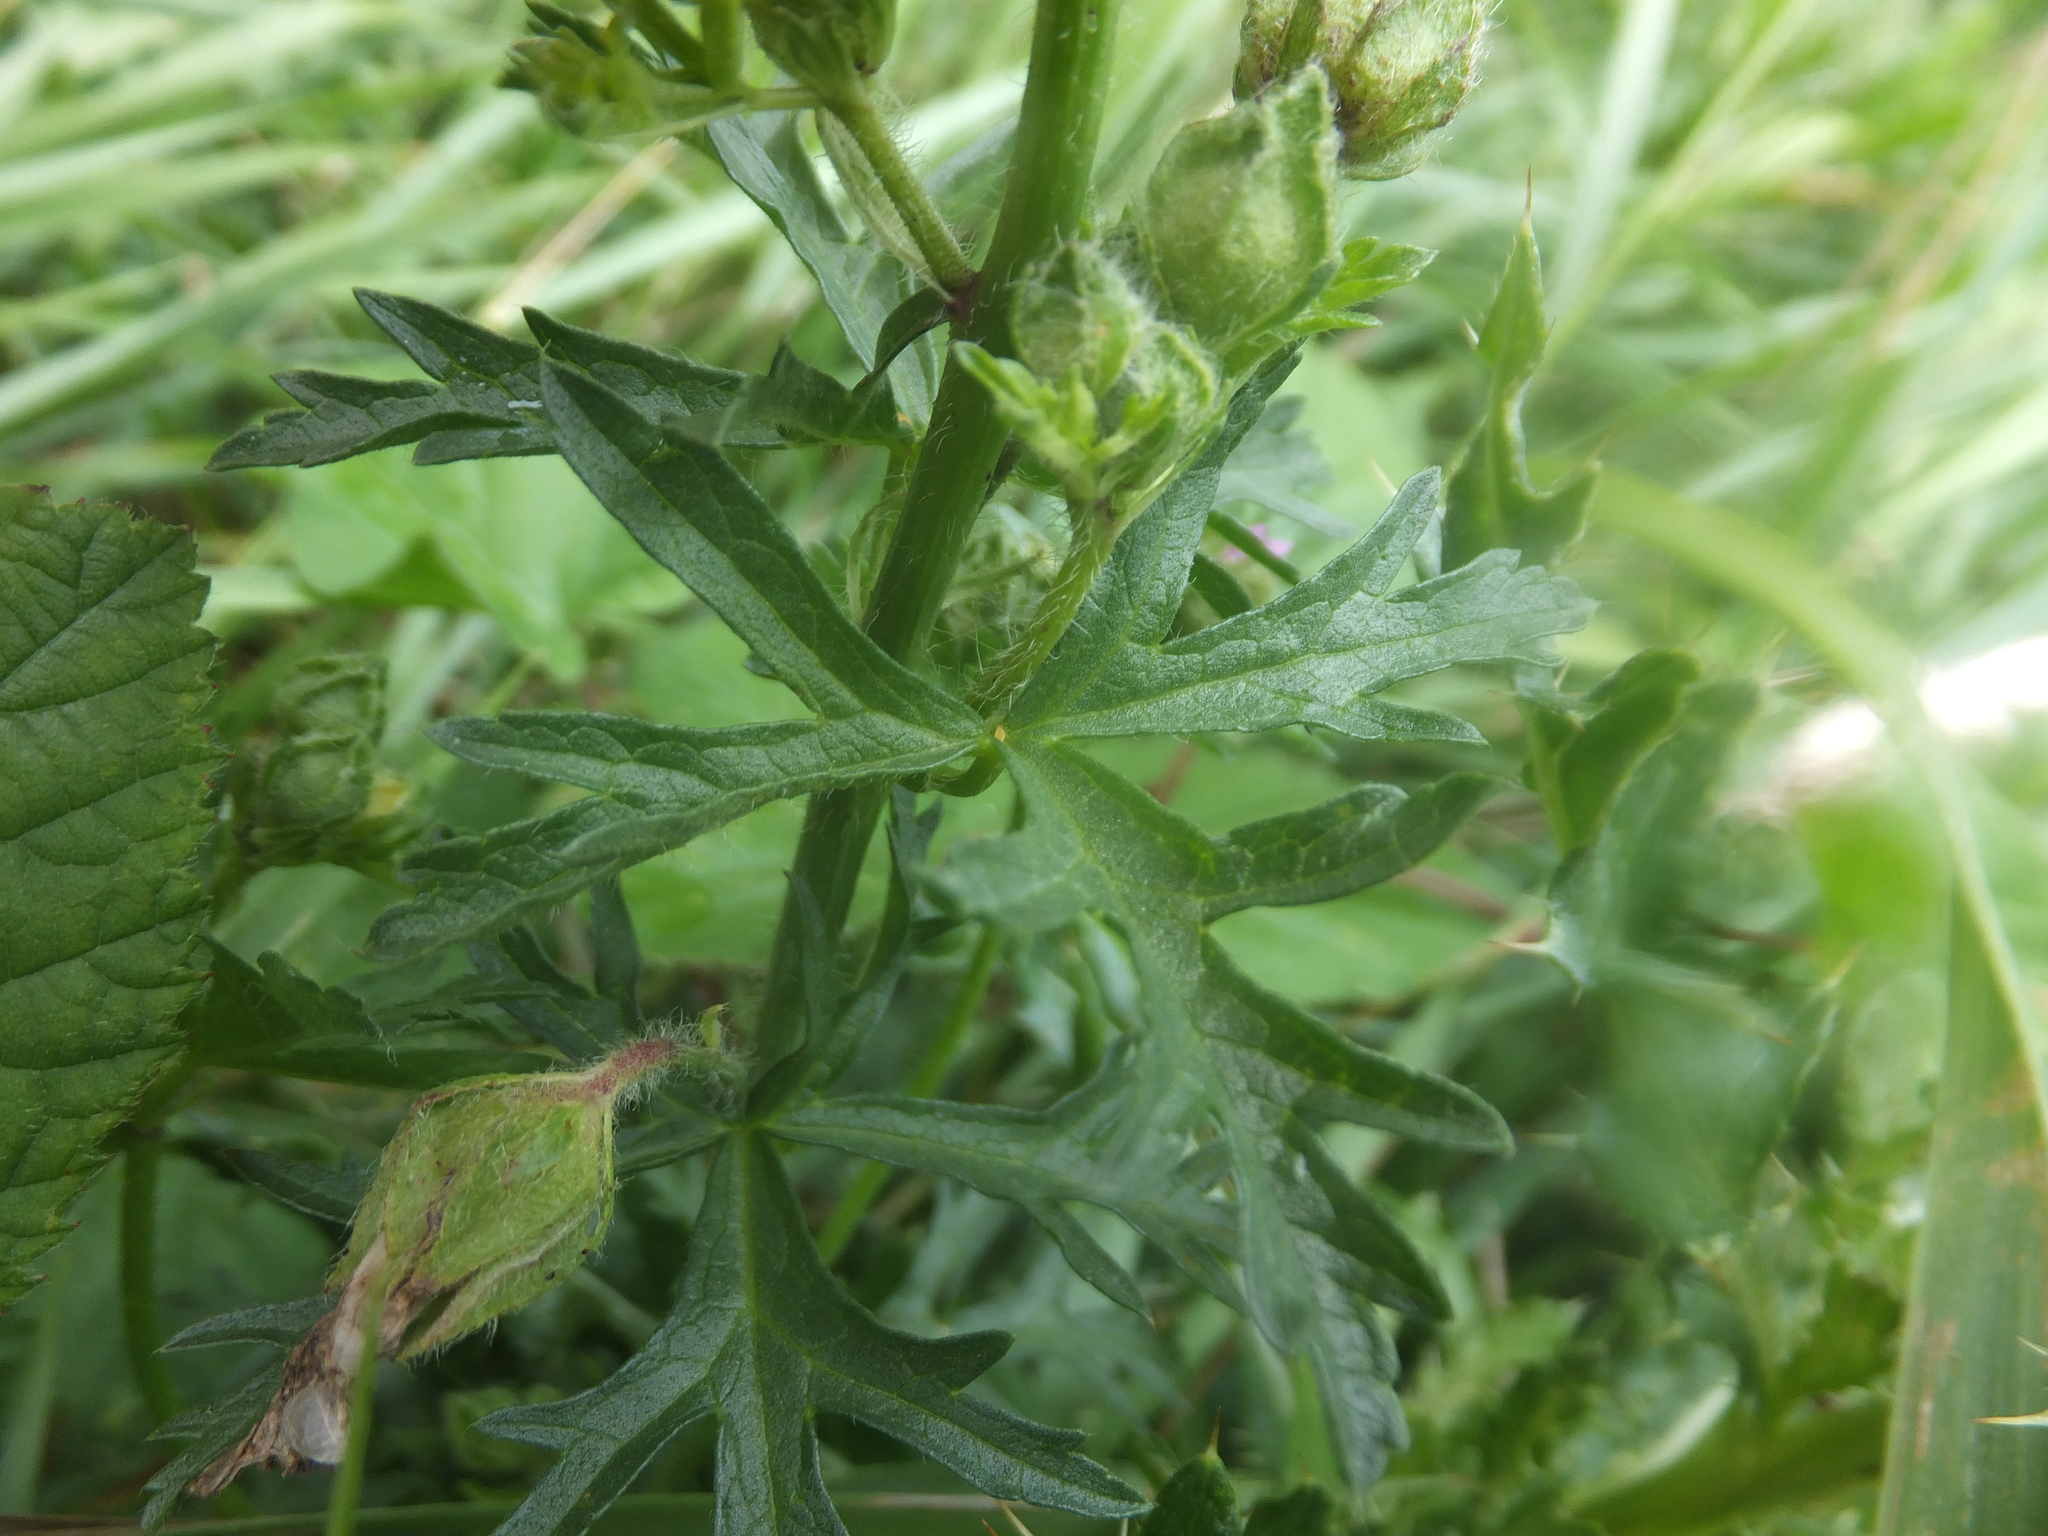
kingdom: Plantae
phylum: Tracheophyta
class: Magnoliopsida
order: Malvales
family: Malvaceae
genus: Malva
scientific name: Malva moschata
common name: Musk mallow
